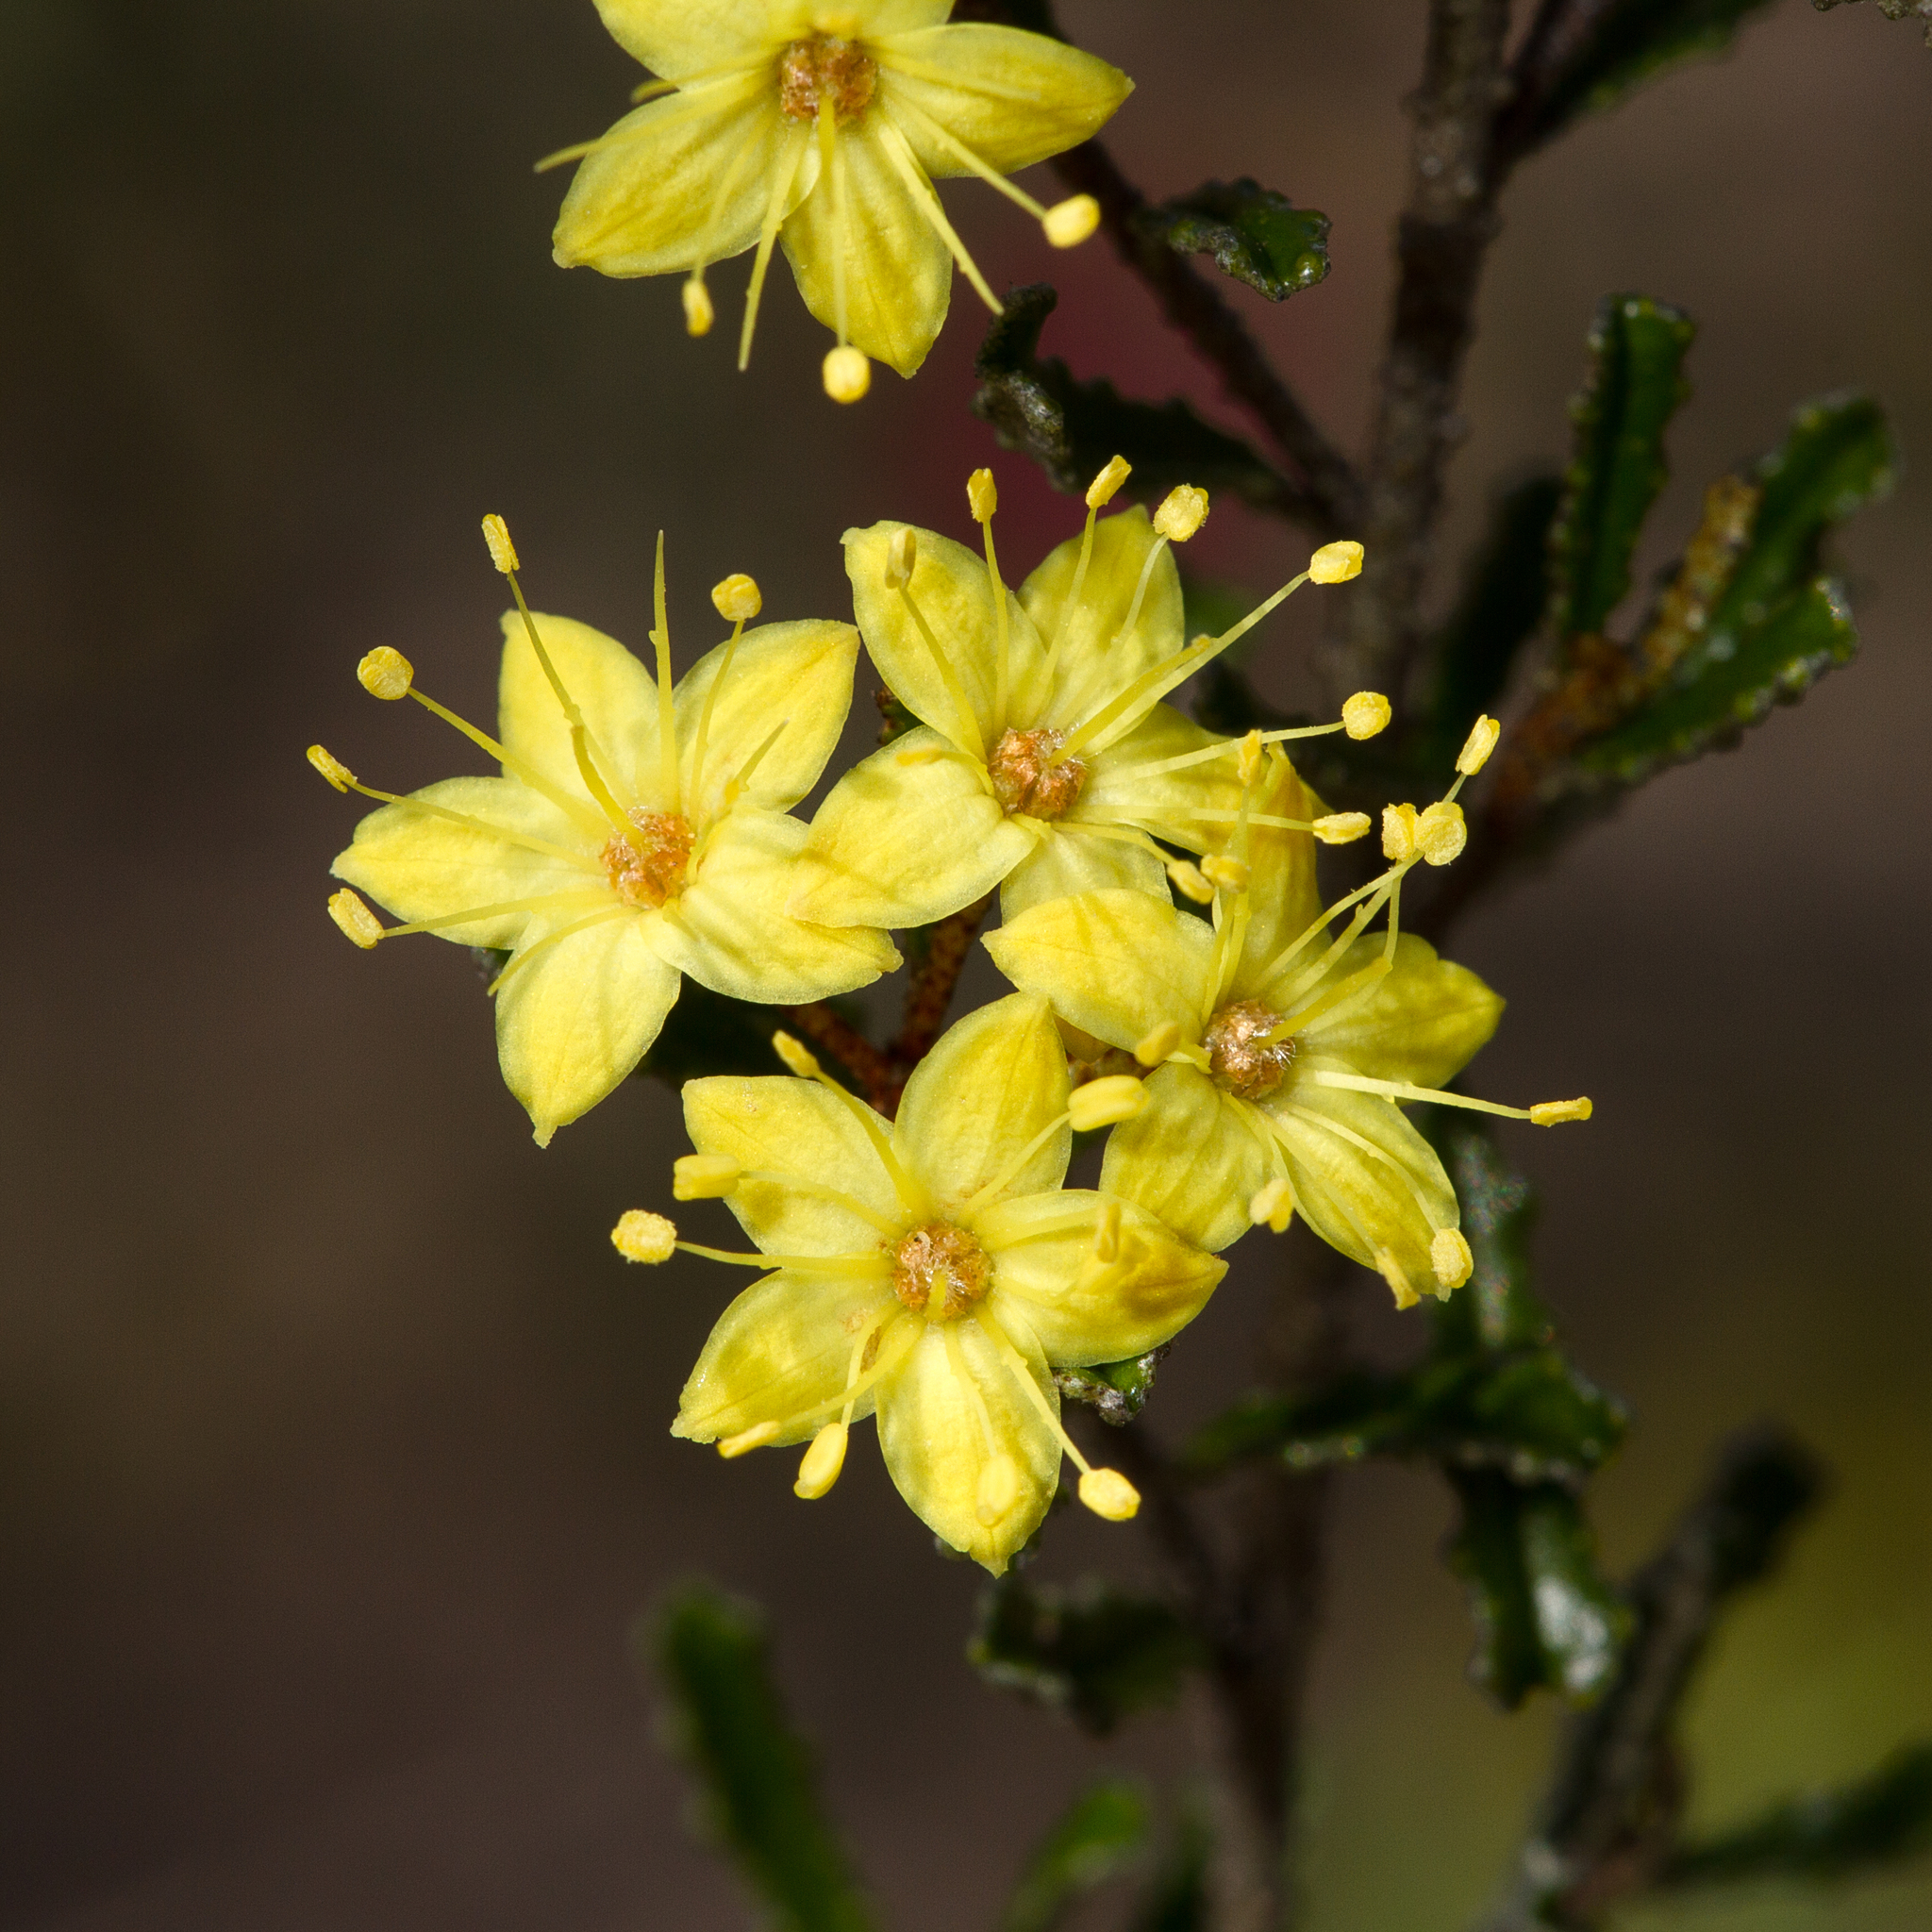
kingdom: Plantae
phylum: Tracheophyta
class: Magnoliopsida
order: Sapindales
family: Rutaceae
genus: Phebalium
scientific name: Phebalium bullatum
